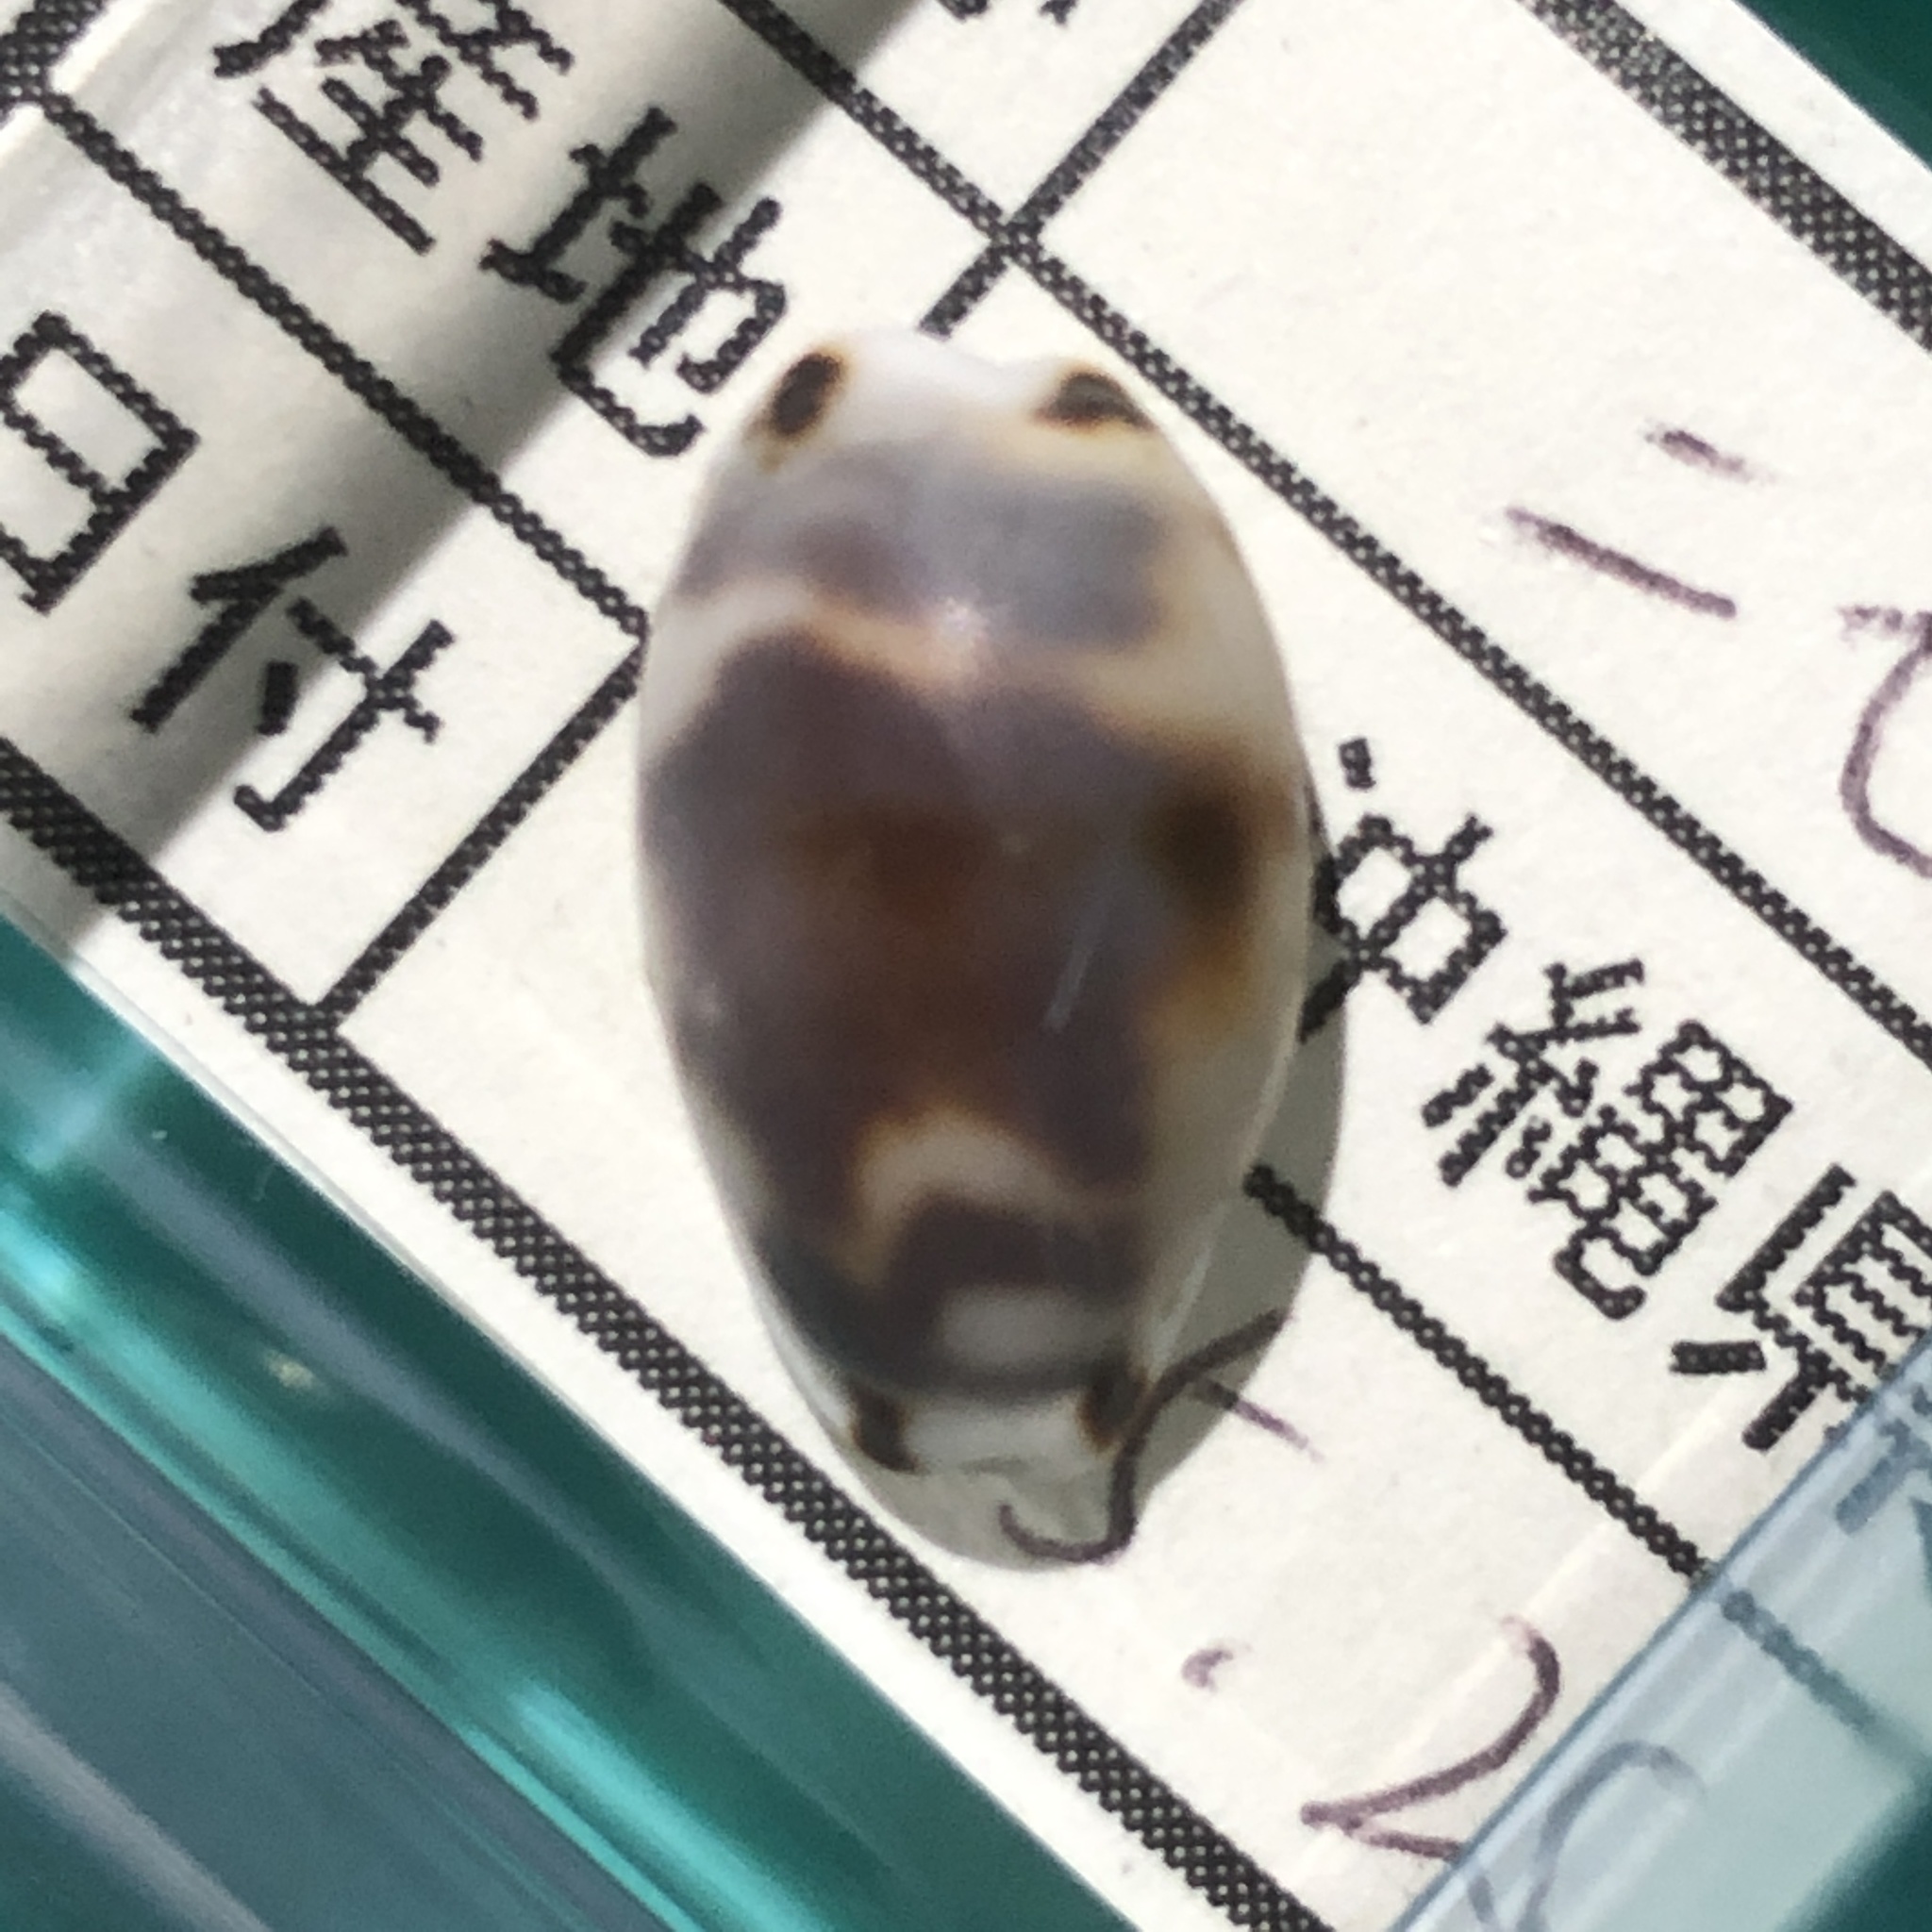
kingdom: Animalia
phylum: Mollusca
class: Gastropoda
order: Littorinimorpha
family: Cypraeidae
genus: Bistolida
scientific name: Bistolida kieneri
